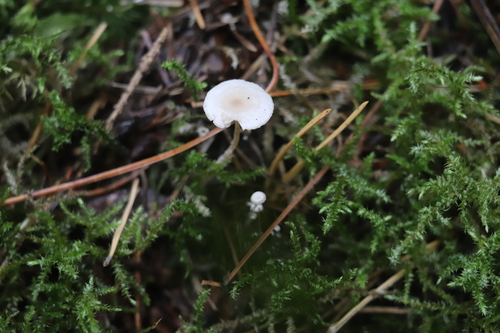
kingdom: Fungi
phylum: Basidiomycota
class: Agaricomycetes
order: Agaricales
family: Tricholomataceae
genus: Collybia
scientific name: Collybia cirrhata
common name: Piggyback shanklet
